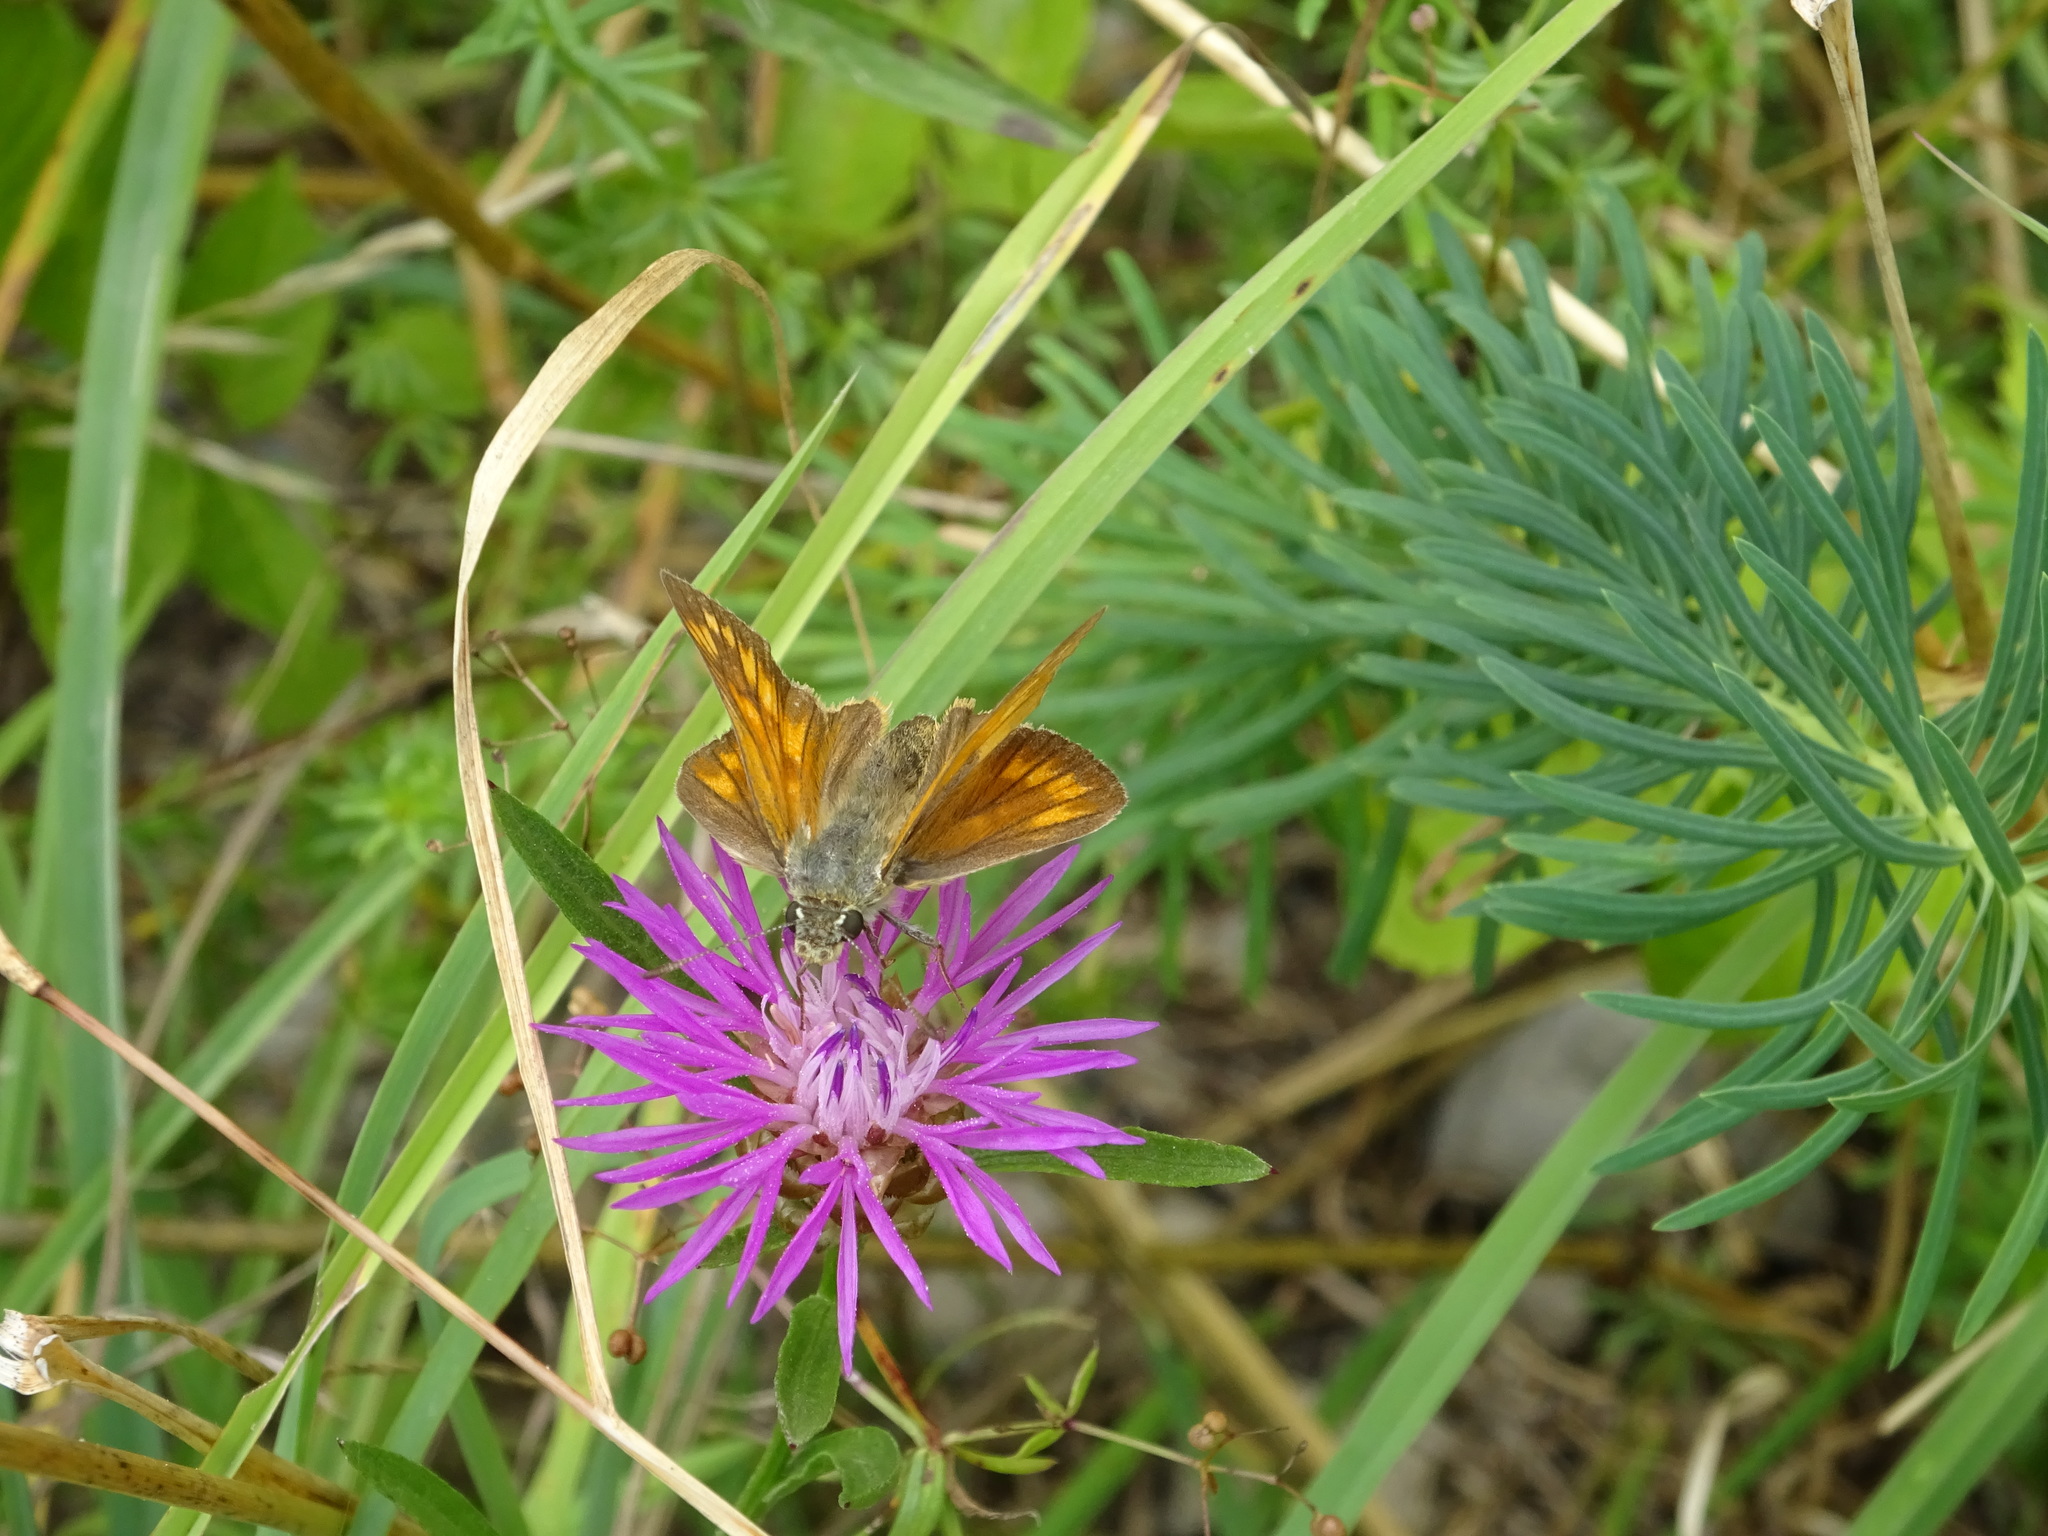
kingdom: Animalia
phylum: Arthropoda
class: Insecta
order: Lepidoptera
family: Hesperiidae
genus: Ochlodes
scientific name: Ochlodes venata
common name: Large skipper
